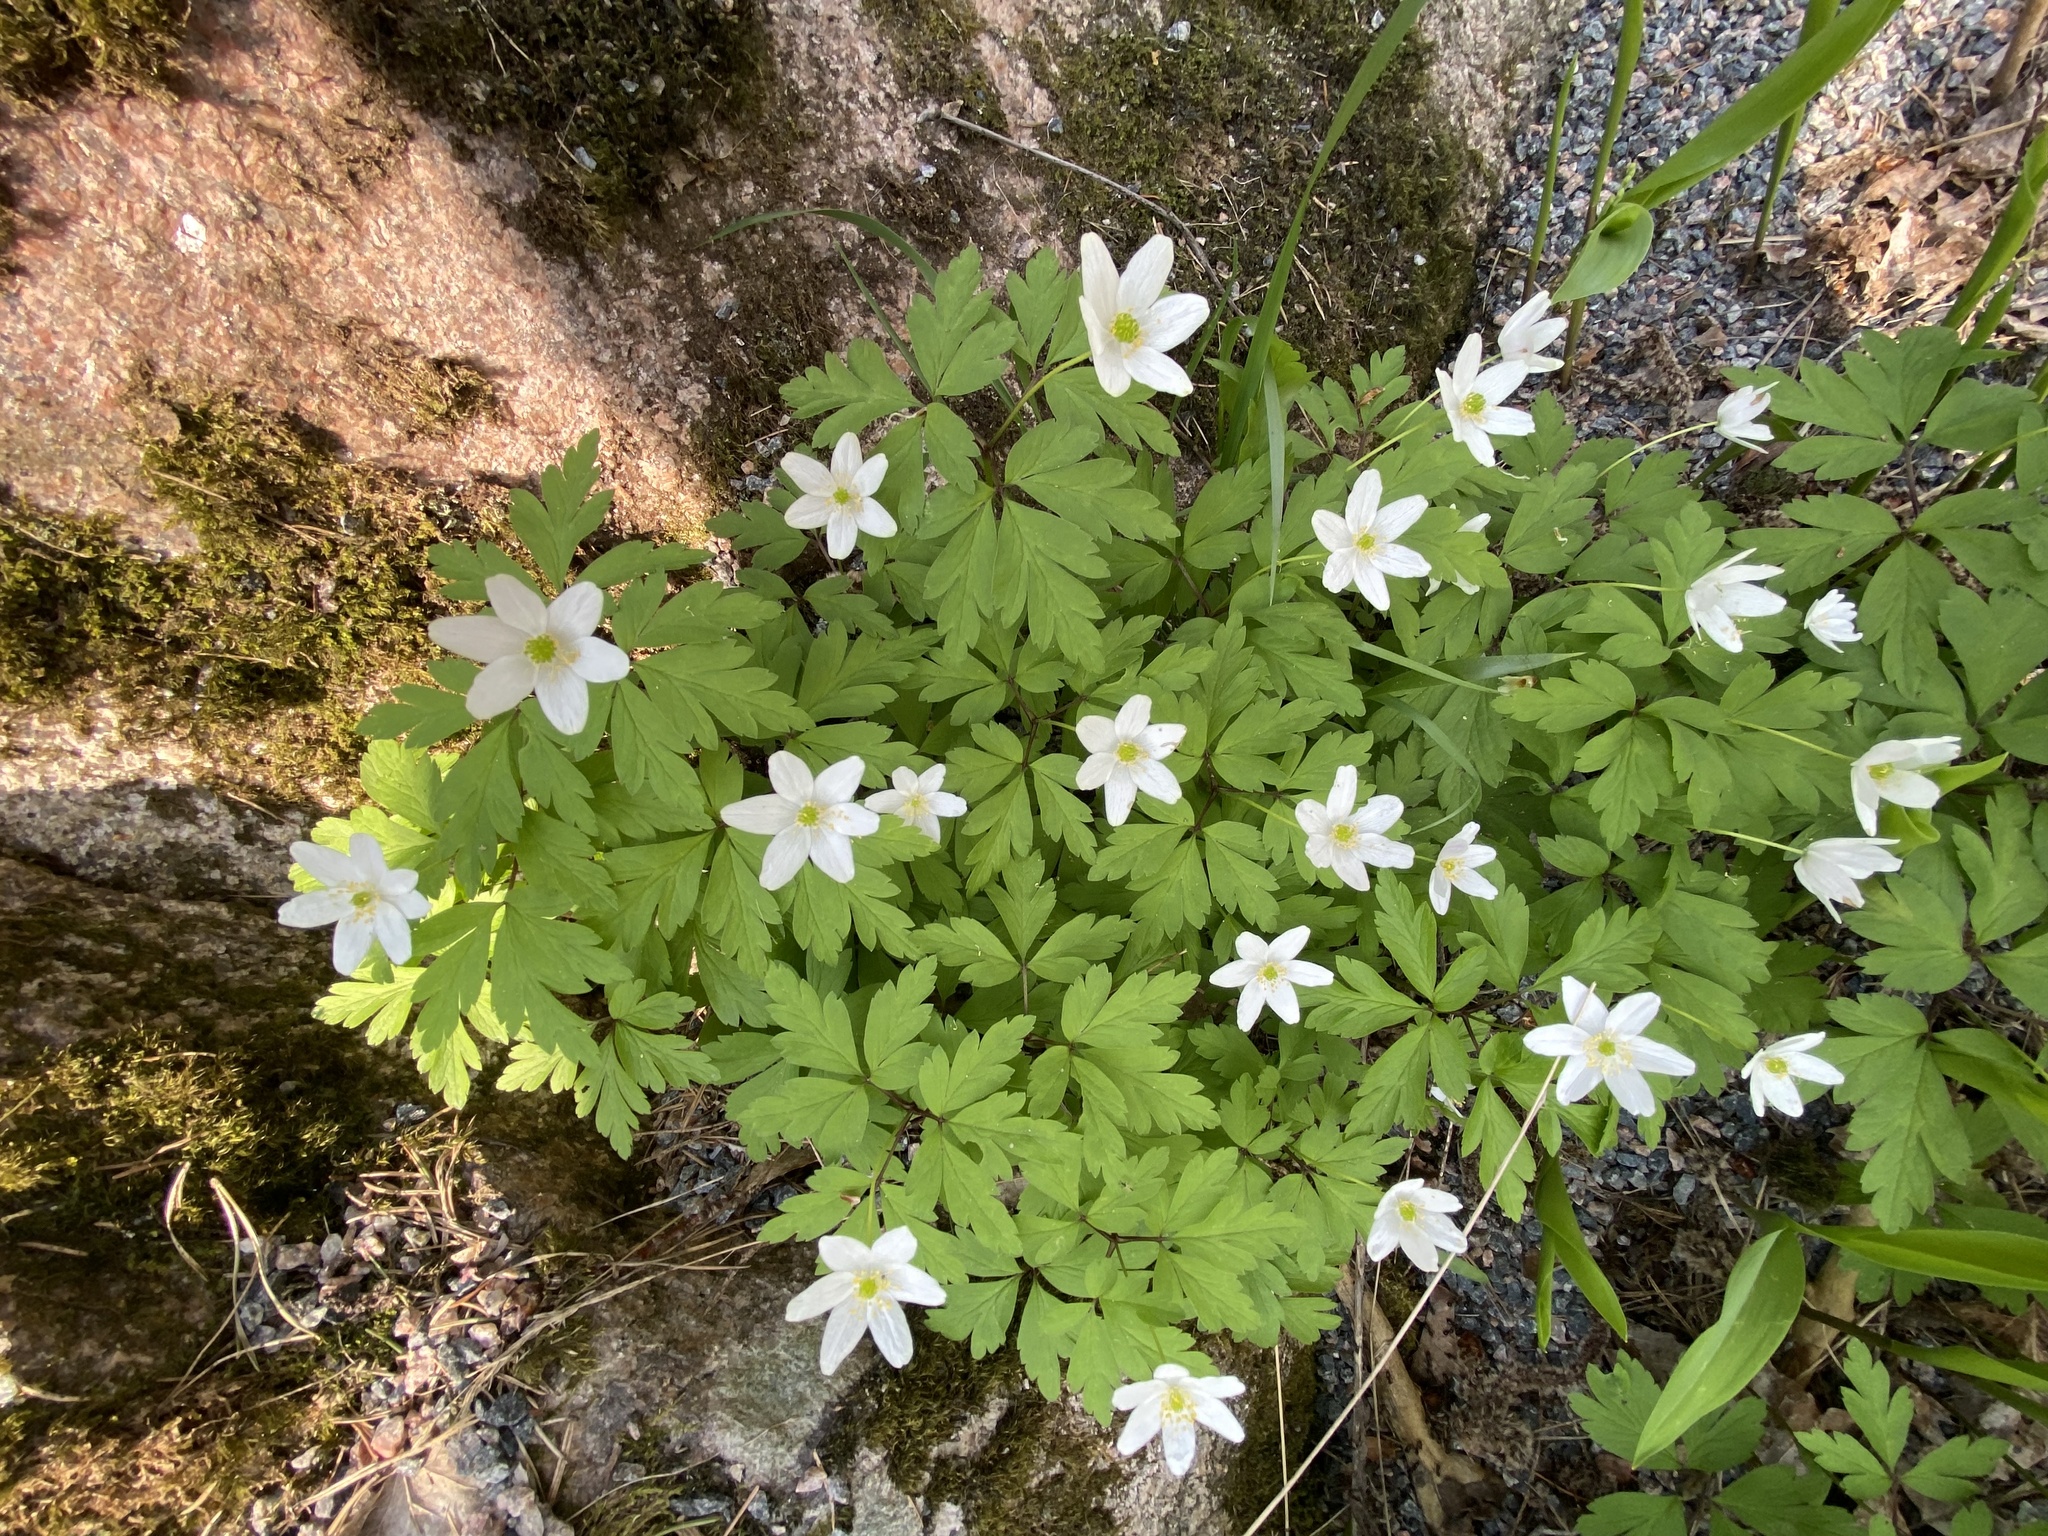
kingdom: Plantae
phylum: Tracheophyta
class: Magnoliopsida
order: Ranunculales
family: Ranunculaceae
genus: Anemone
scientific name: Anemone nemorosa
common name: Wood anemone
